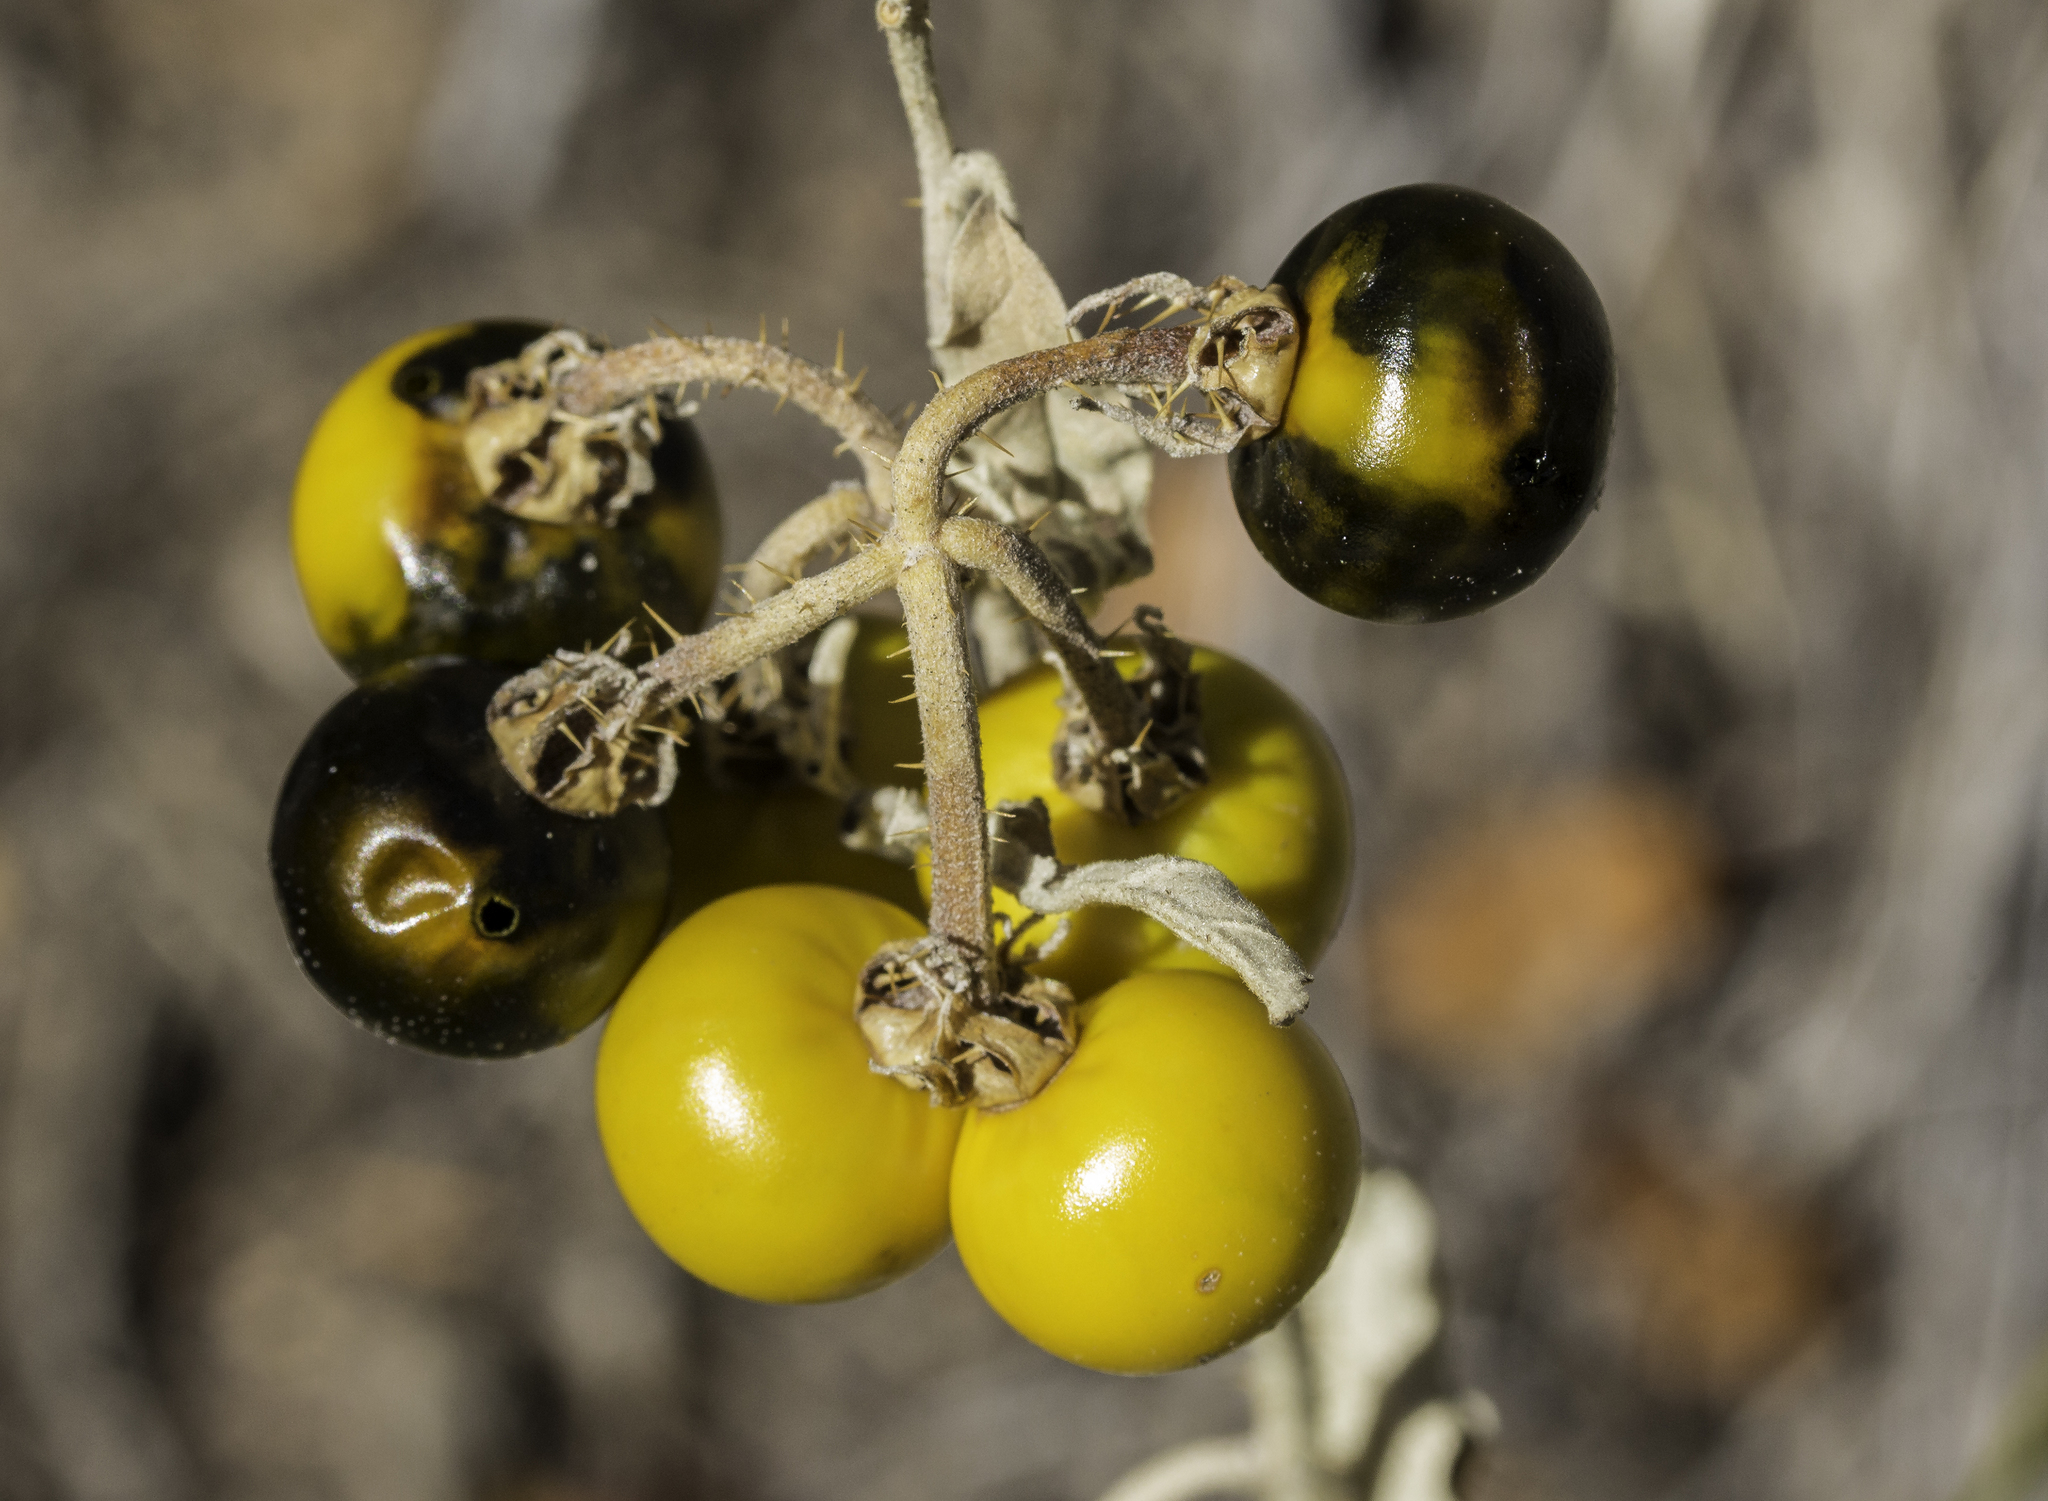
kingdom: Plantae
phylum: Tracheophyta
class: Magnoliopsida
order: Solanales
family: Solanaceae
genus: Solanum
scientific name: Solanum elaeagnifolium
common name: Silverleaf nightshade
